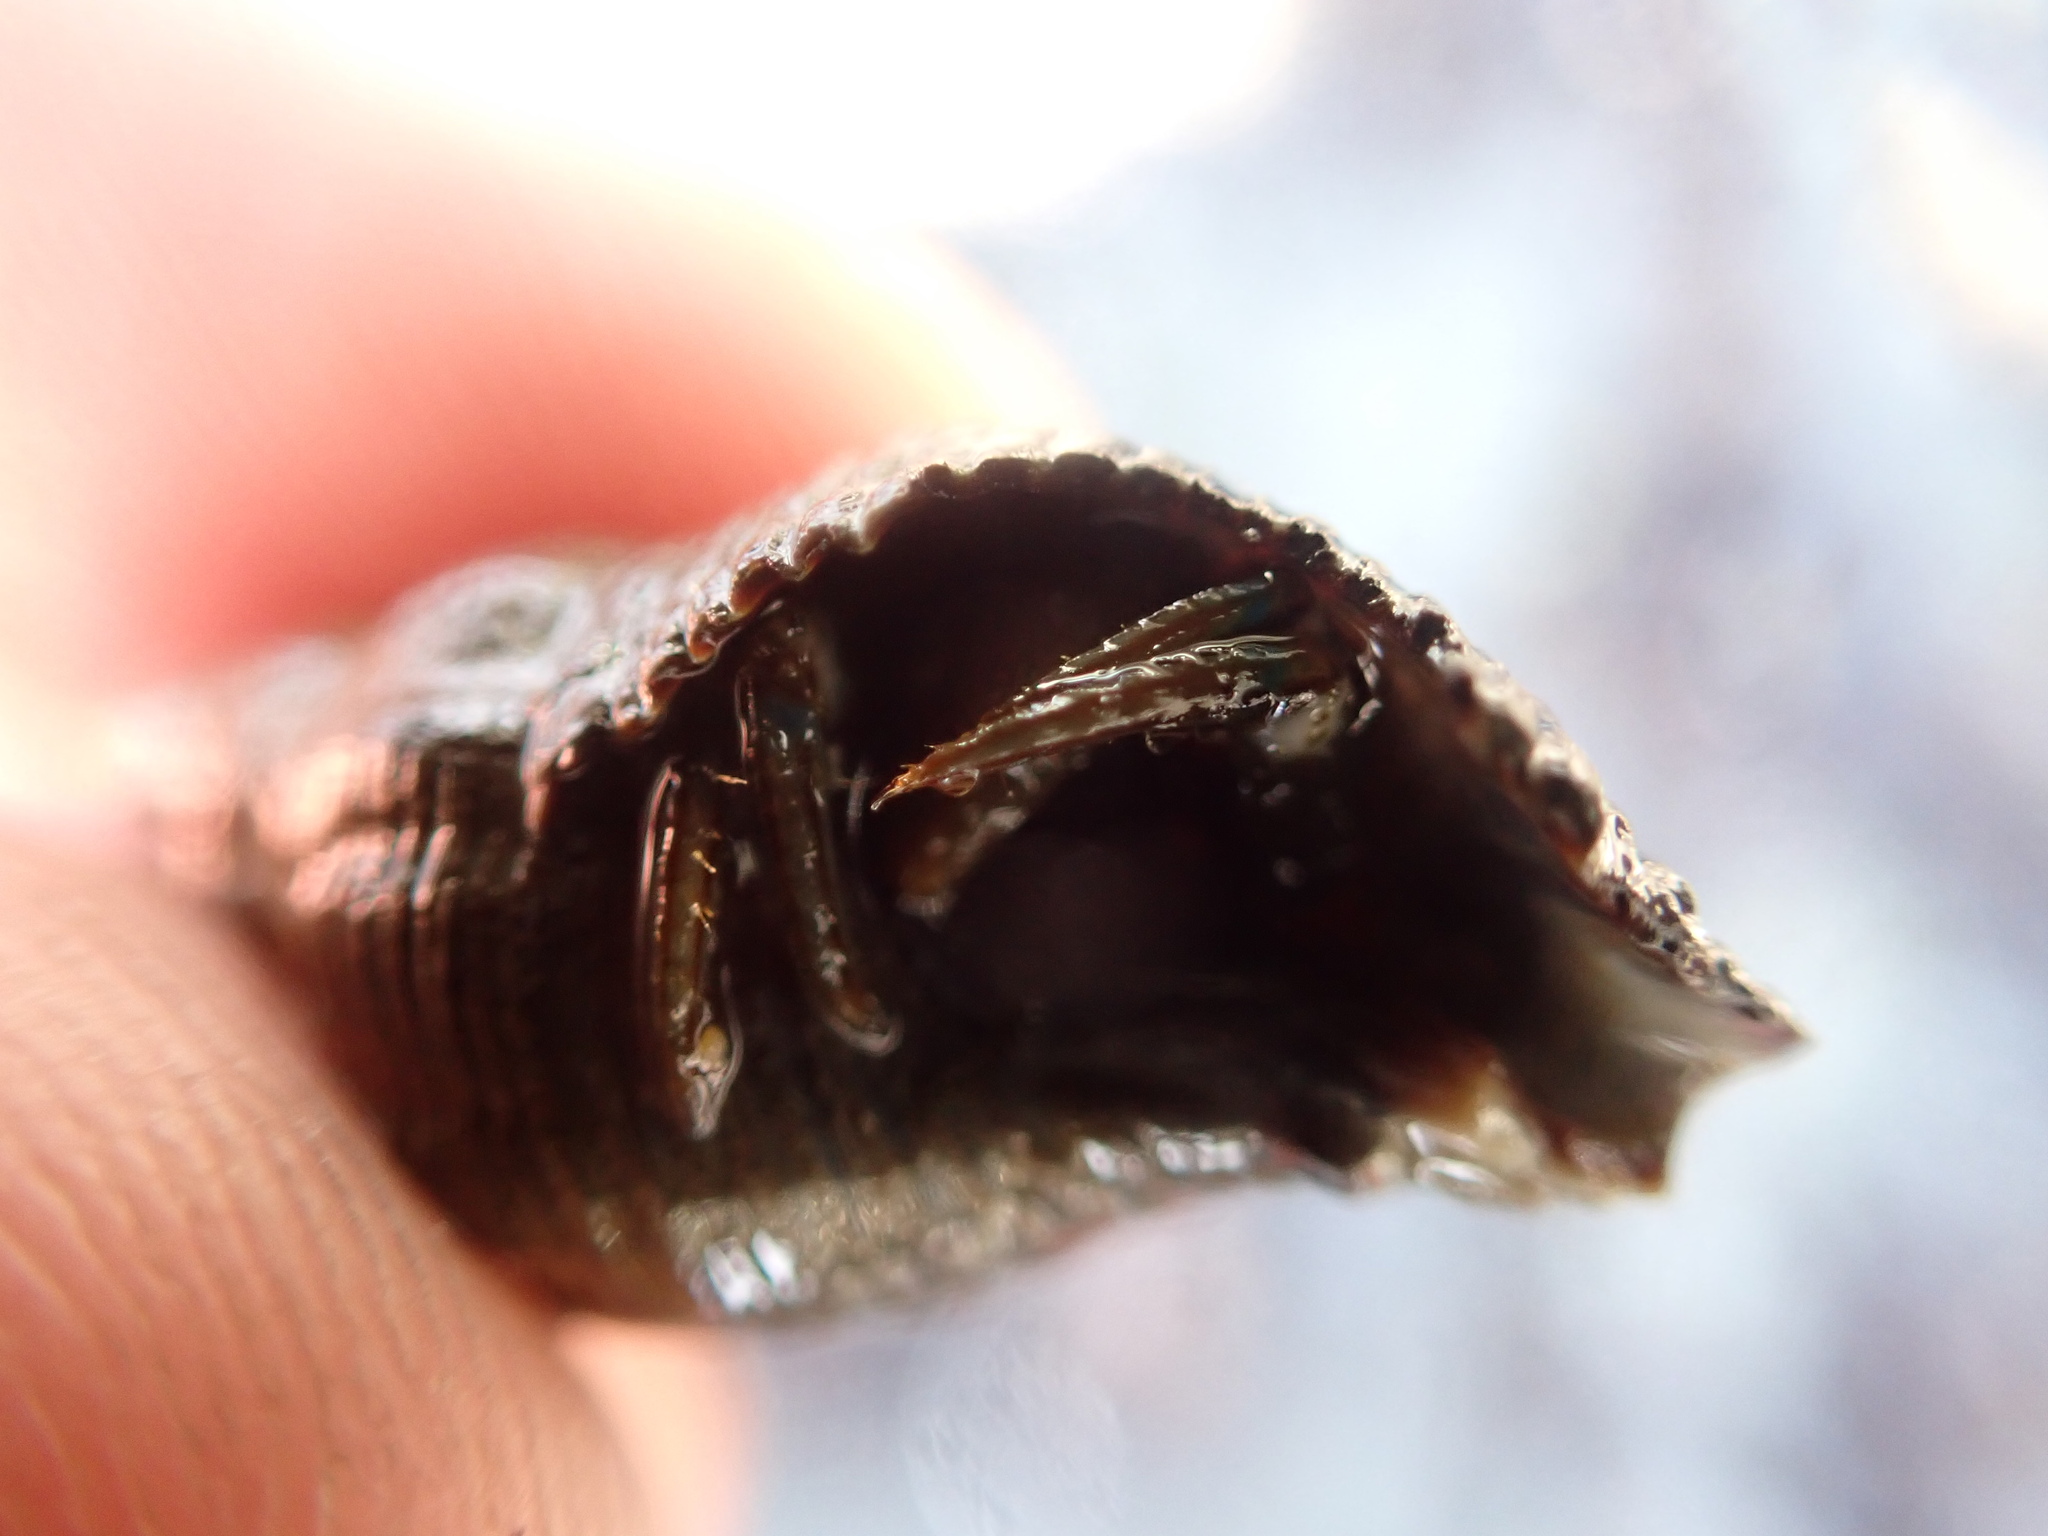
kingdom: Animalia
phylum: Arthropoda
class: Malacostraca
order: Decapoda
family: Paguridae
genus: Pagurus
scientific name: Pagurus hirsutiusculus
